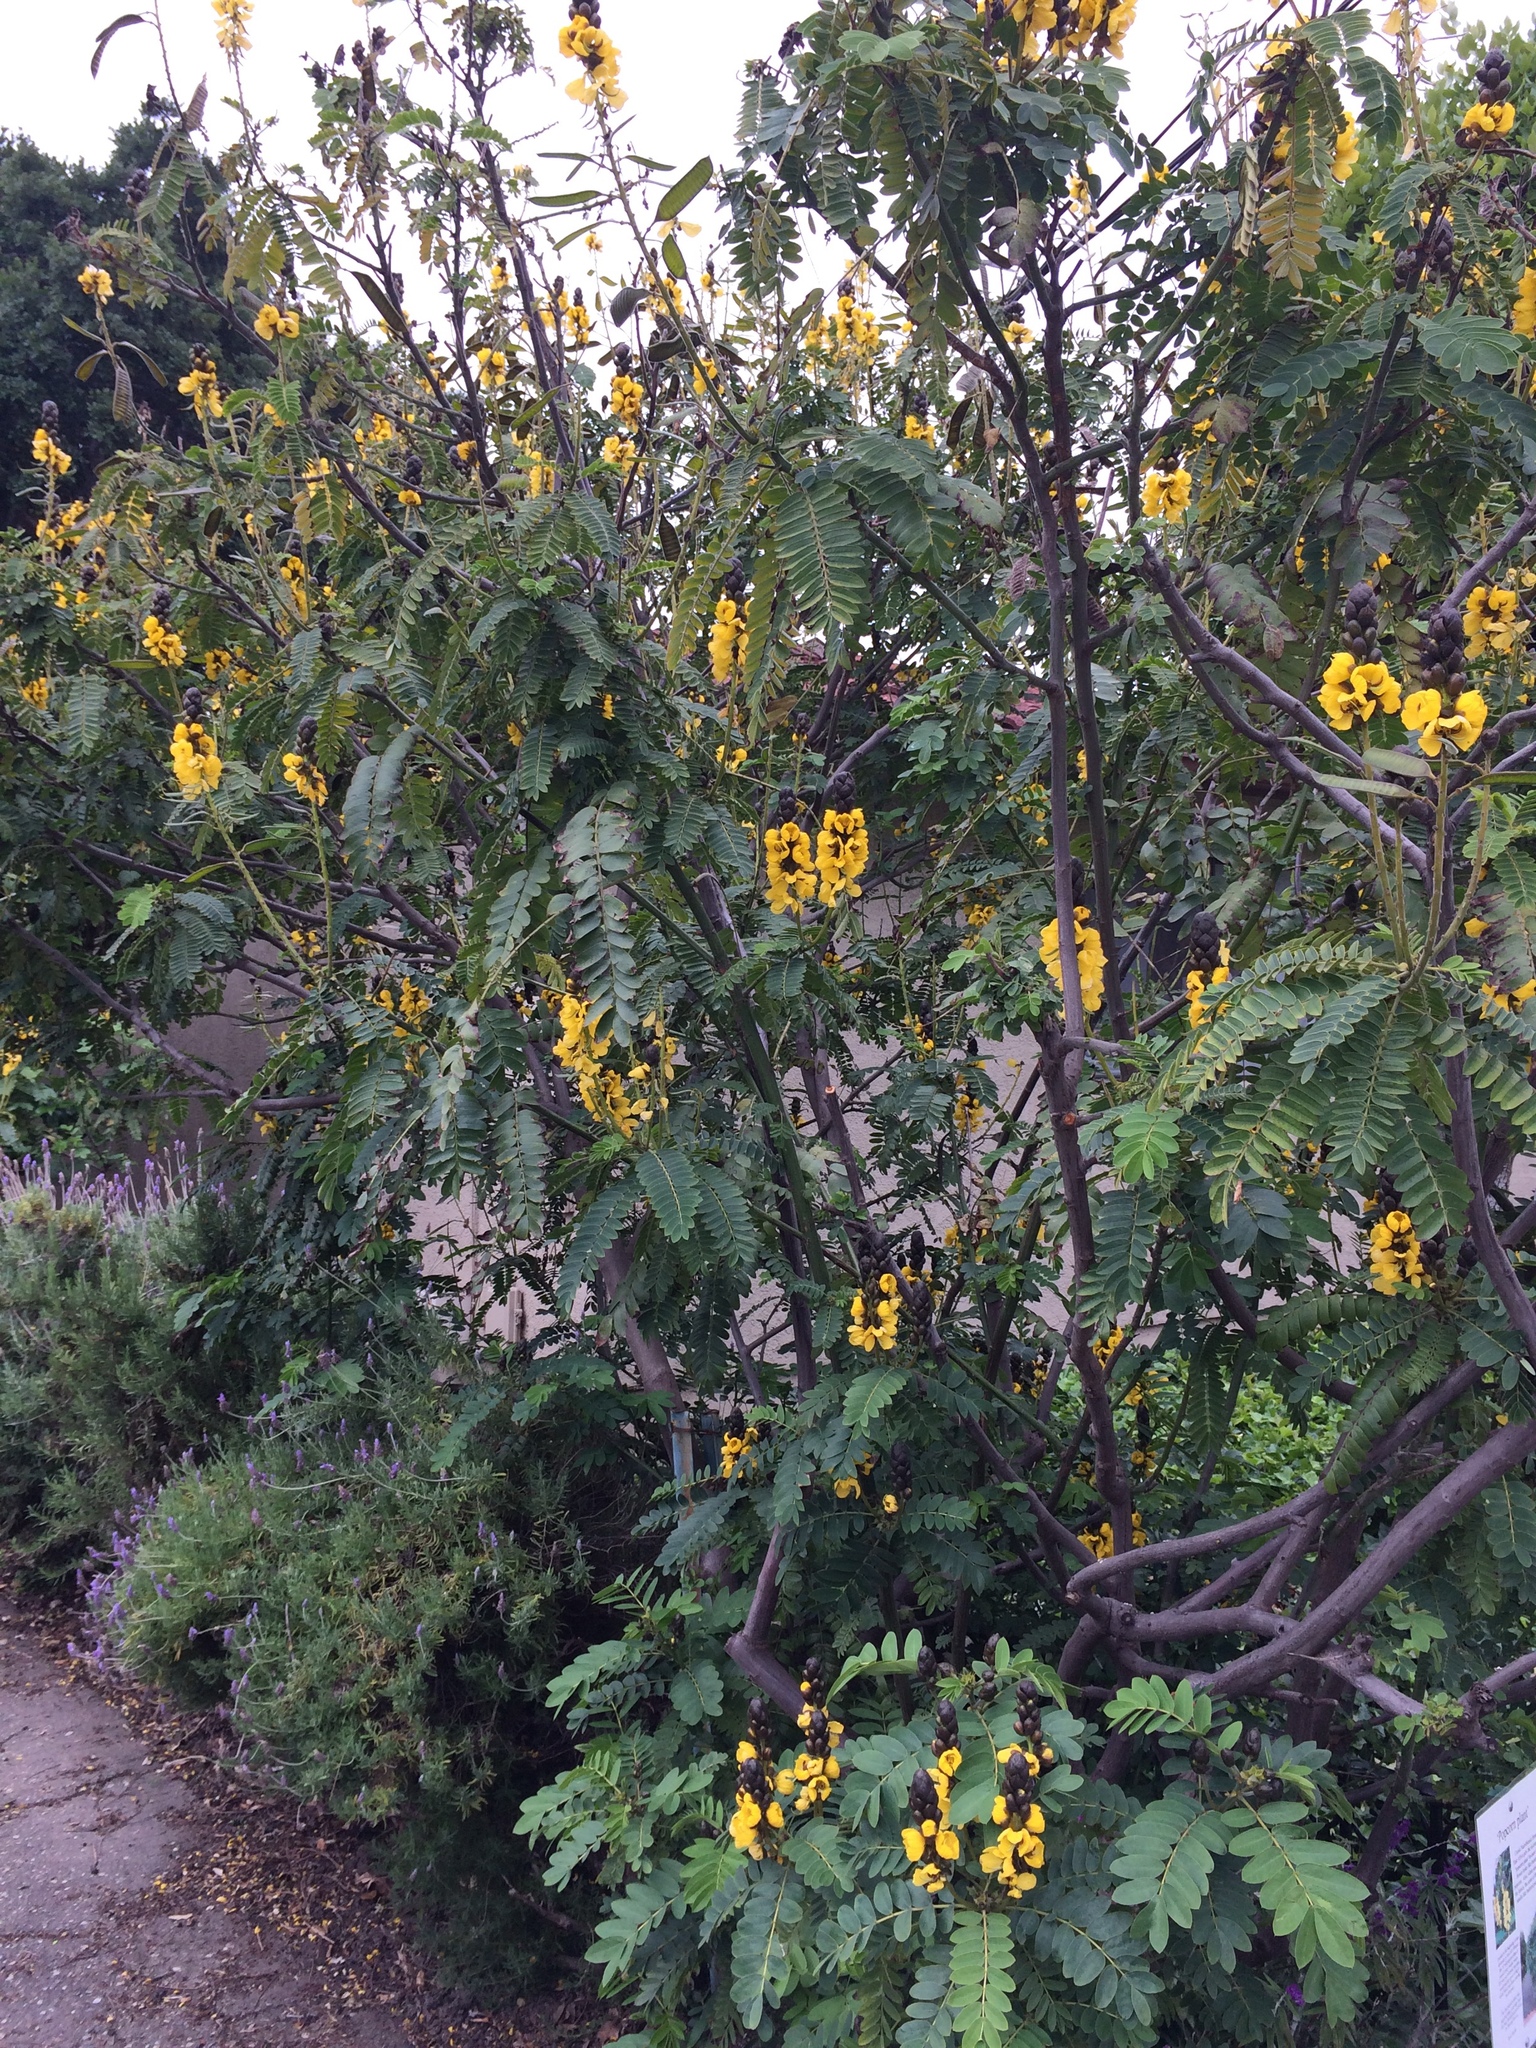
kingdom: Plantae
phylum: Tracheophyta
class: Magnoliopsida
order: Fabales
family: Fabaceae
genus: Senna
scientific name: Senna didymobotrya
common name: African senna
